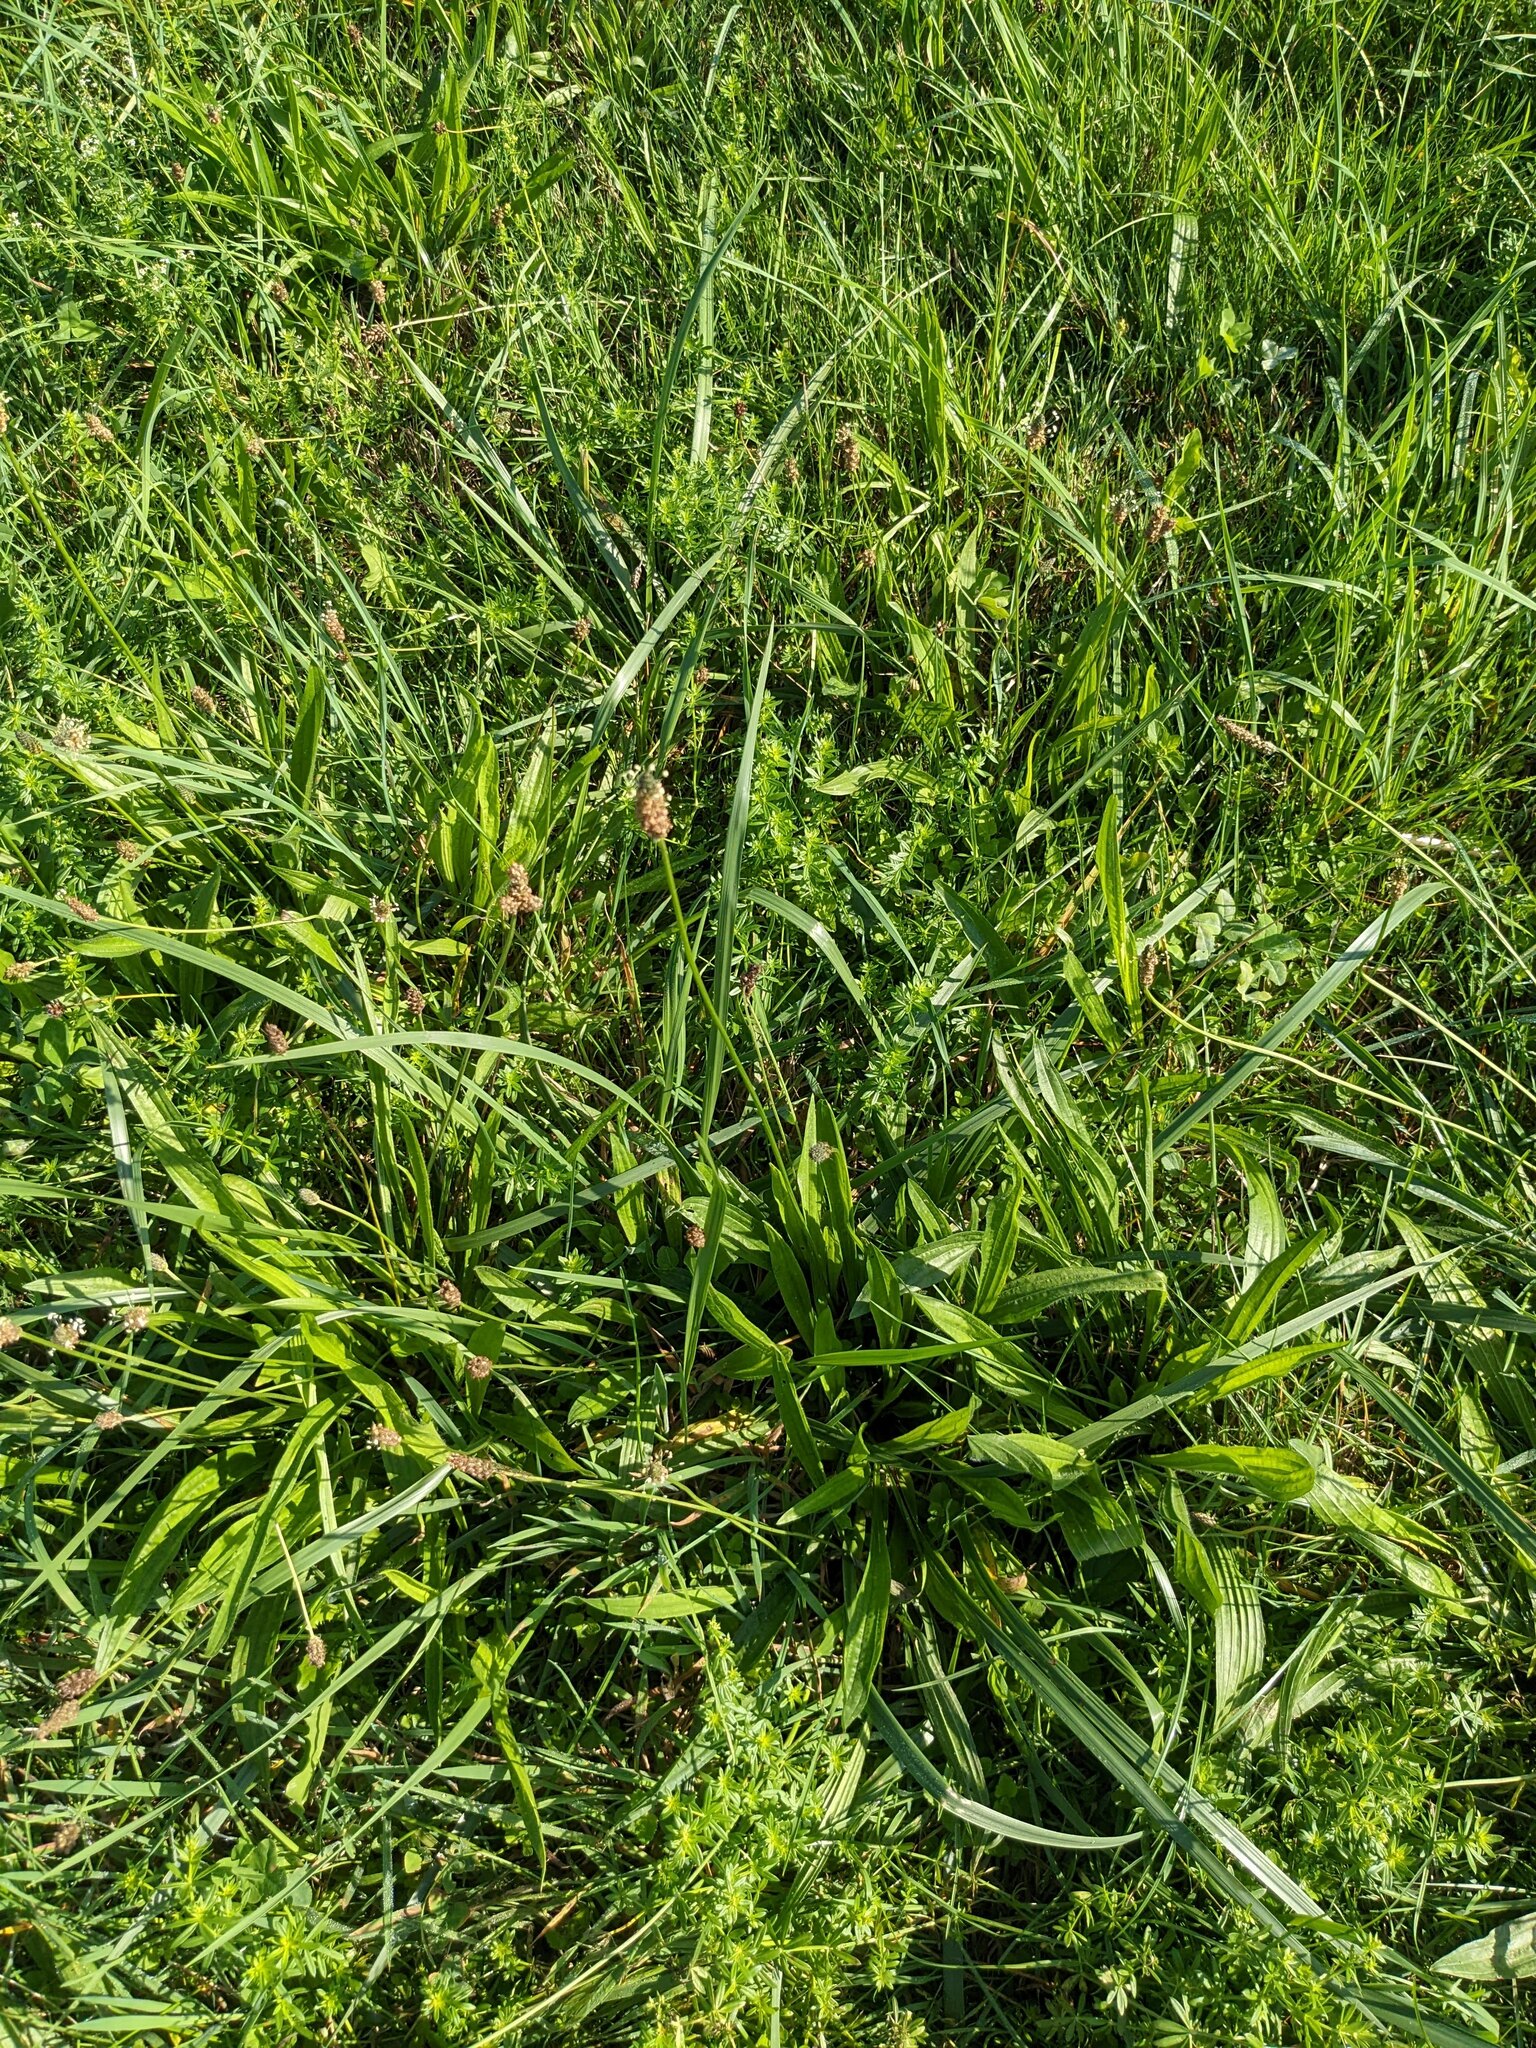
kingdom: Plantae
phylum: Tracheophyta
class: Magnoliopsida
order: Lamiales
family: Plantaginaceae
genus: Plantago
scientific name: Plantago lanceolata
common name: Ribwort plantain
